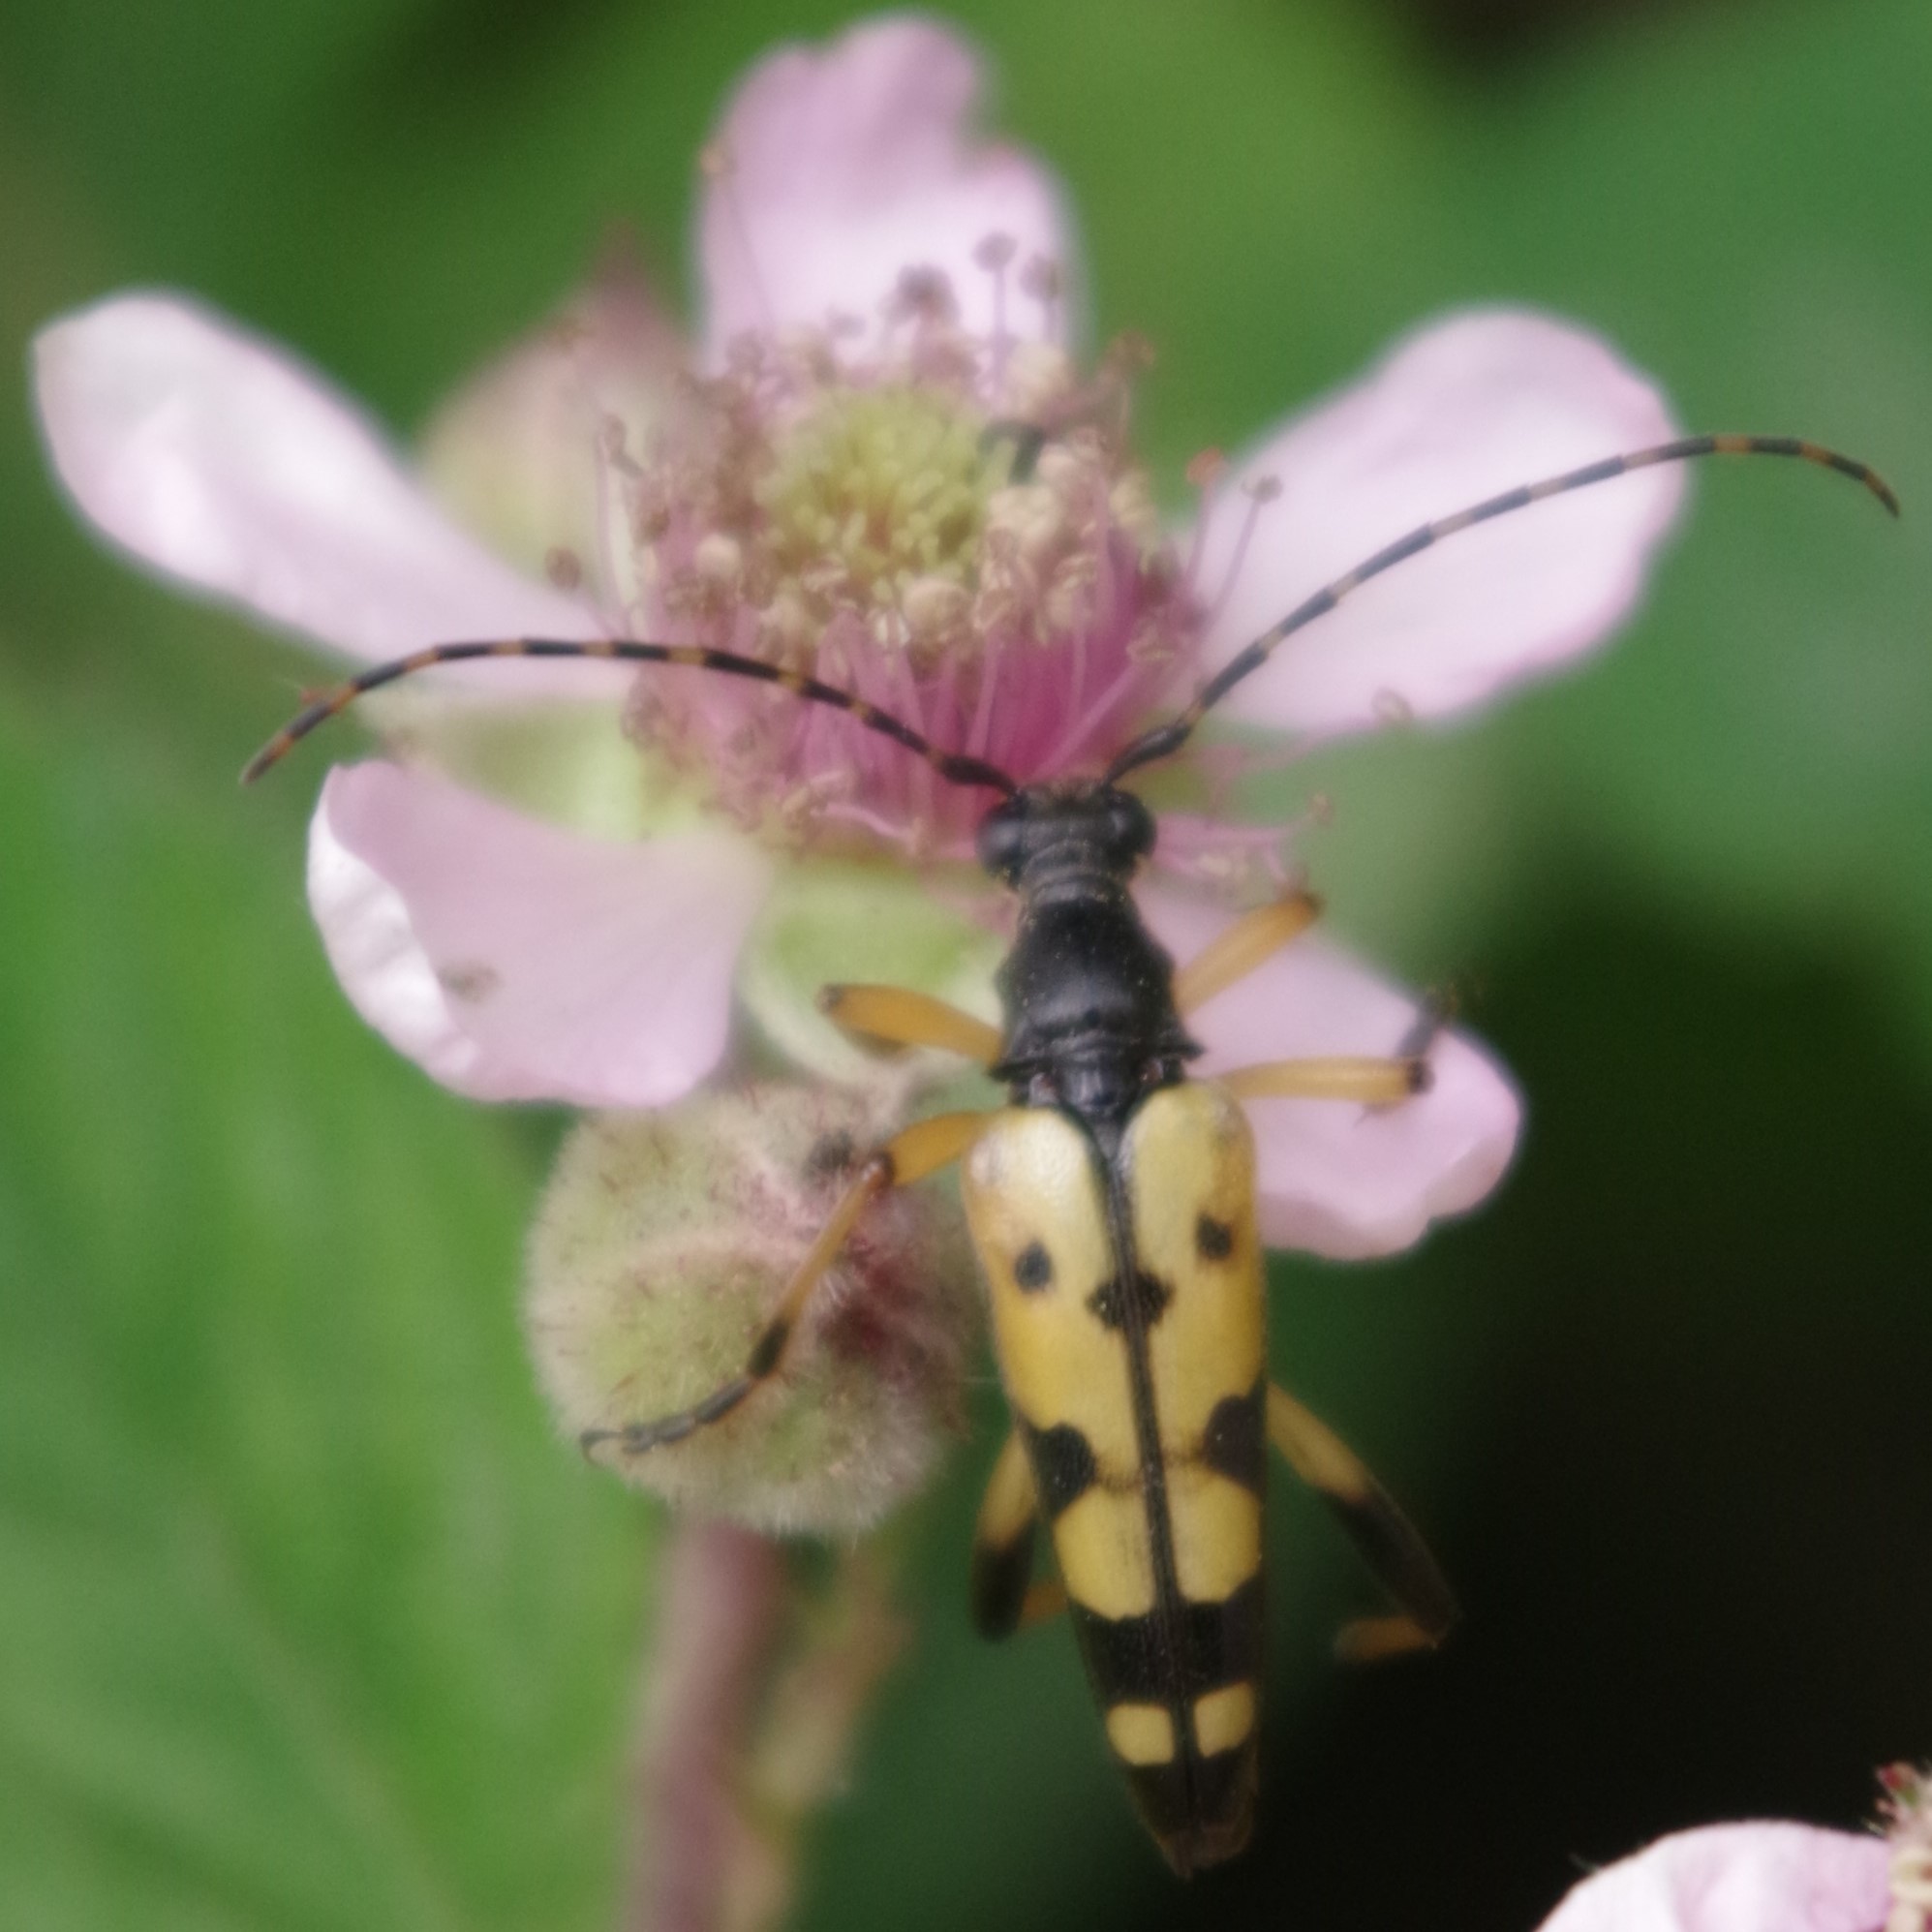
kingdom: Animalia
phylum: Arthropoda
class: Insecta
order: Coleoptera
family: Cerambycidae
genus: Rutpela
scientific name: Rutpela maculata
